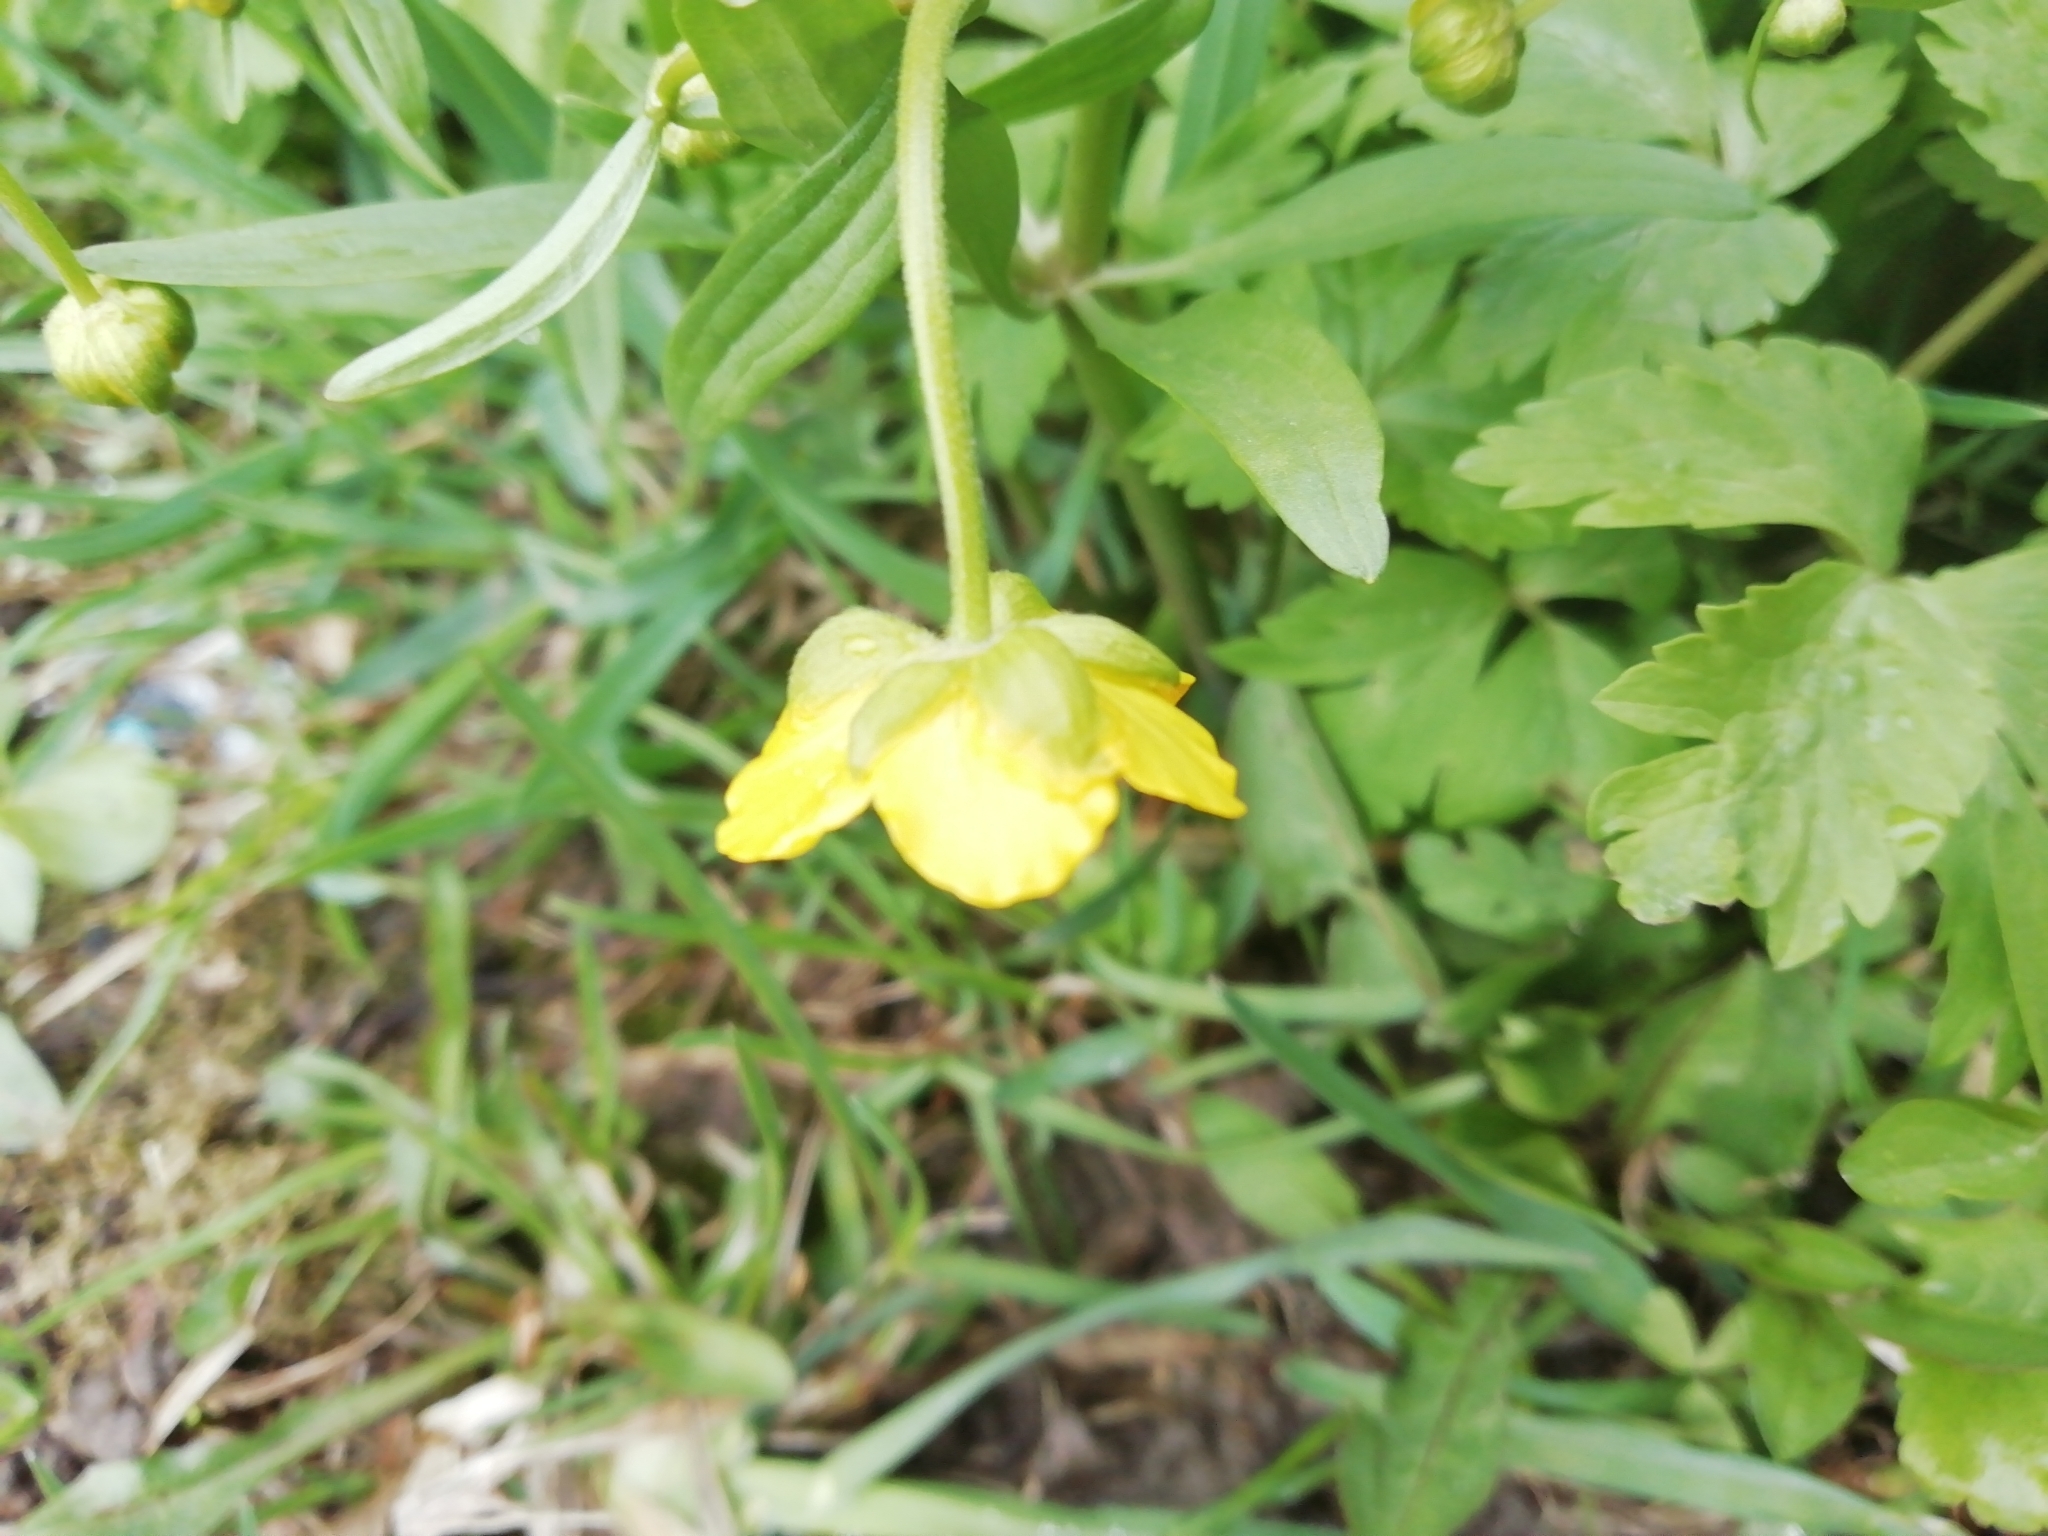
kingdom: Plantae
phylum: Tracheophyta
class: Magnoliopsida
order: Ranunculales
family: Ranunculaceae
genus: Ranunculus
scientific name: Ranunculus monophyllus
